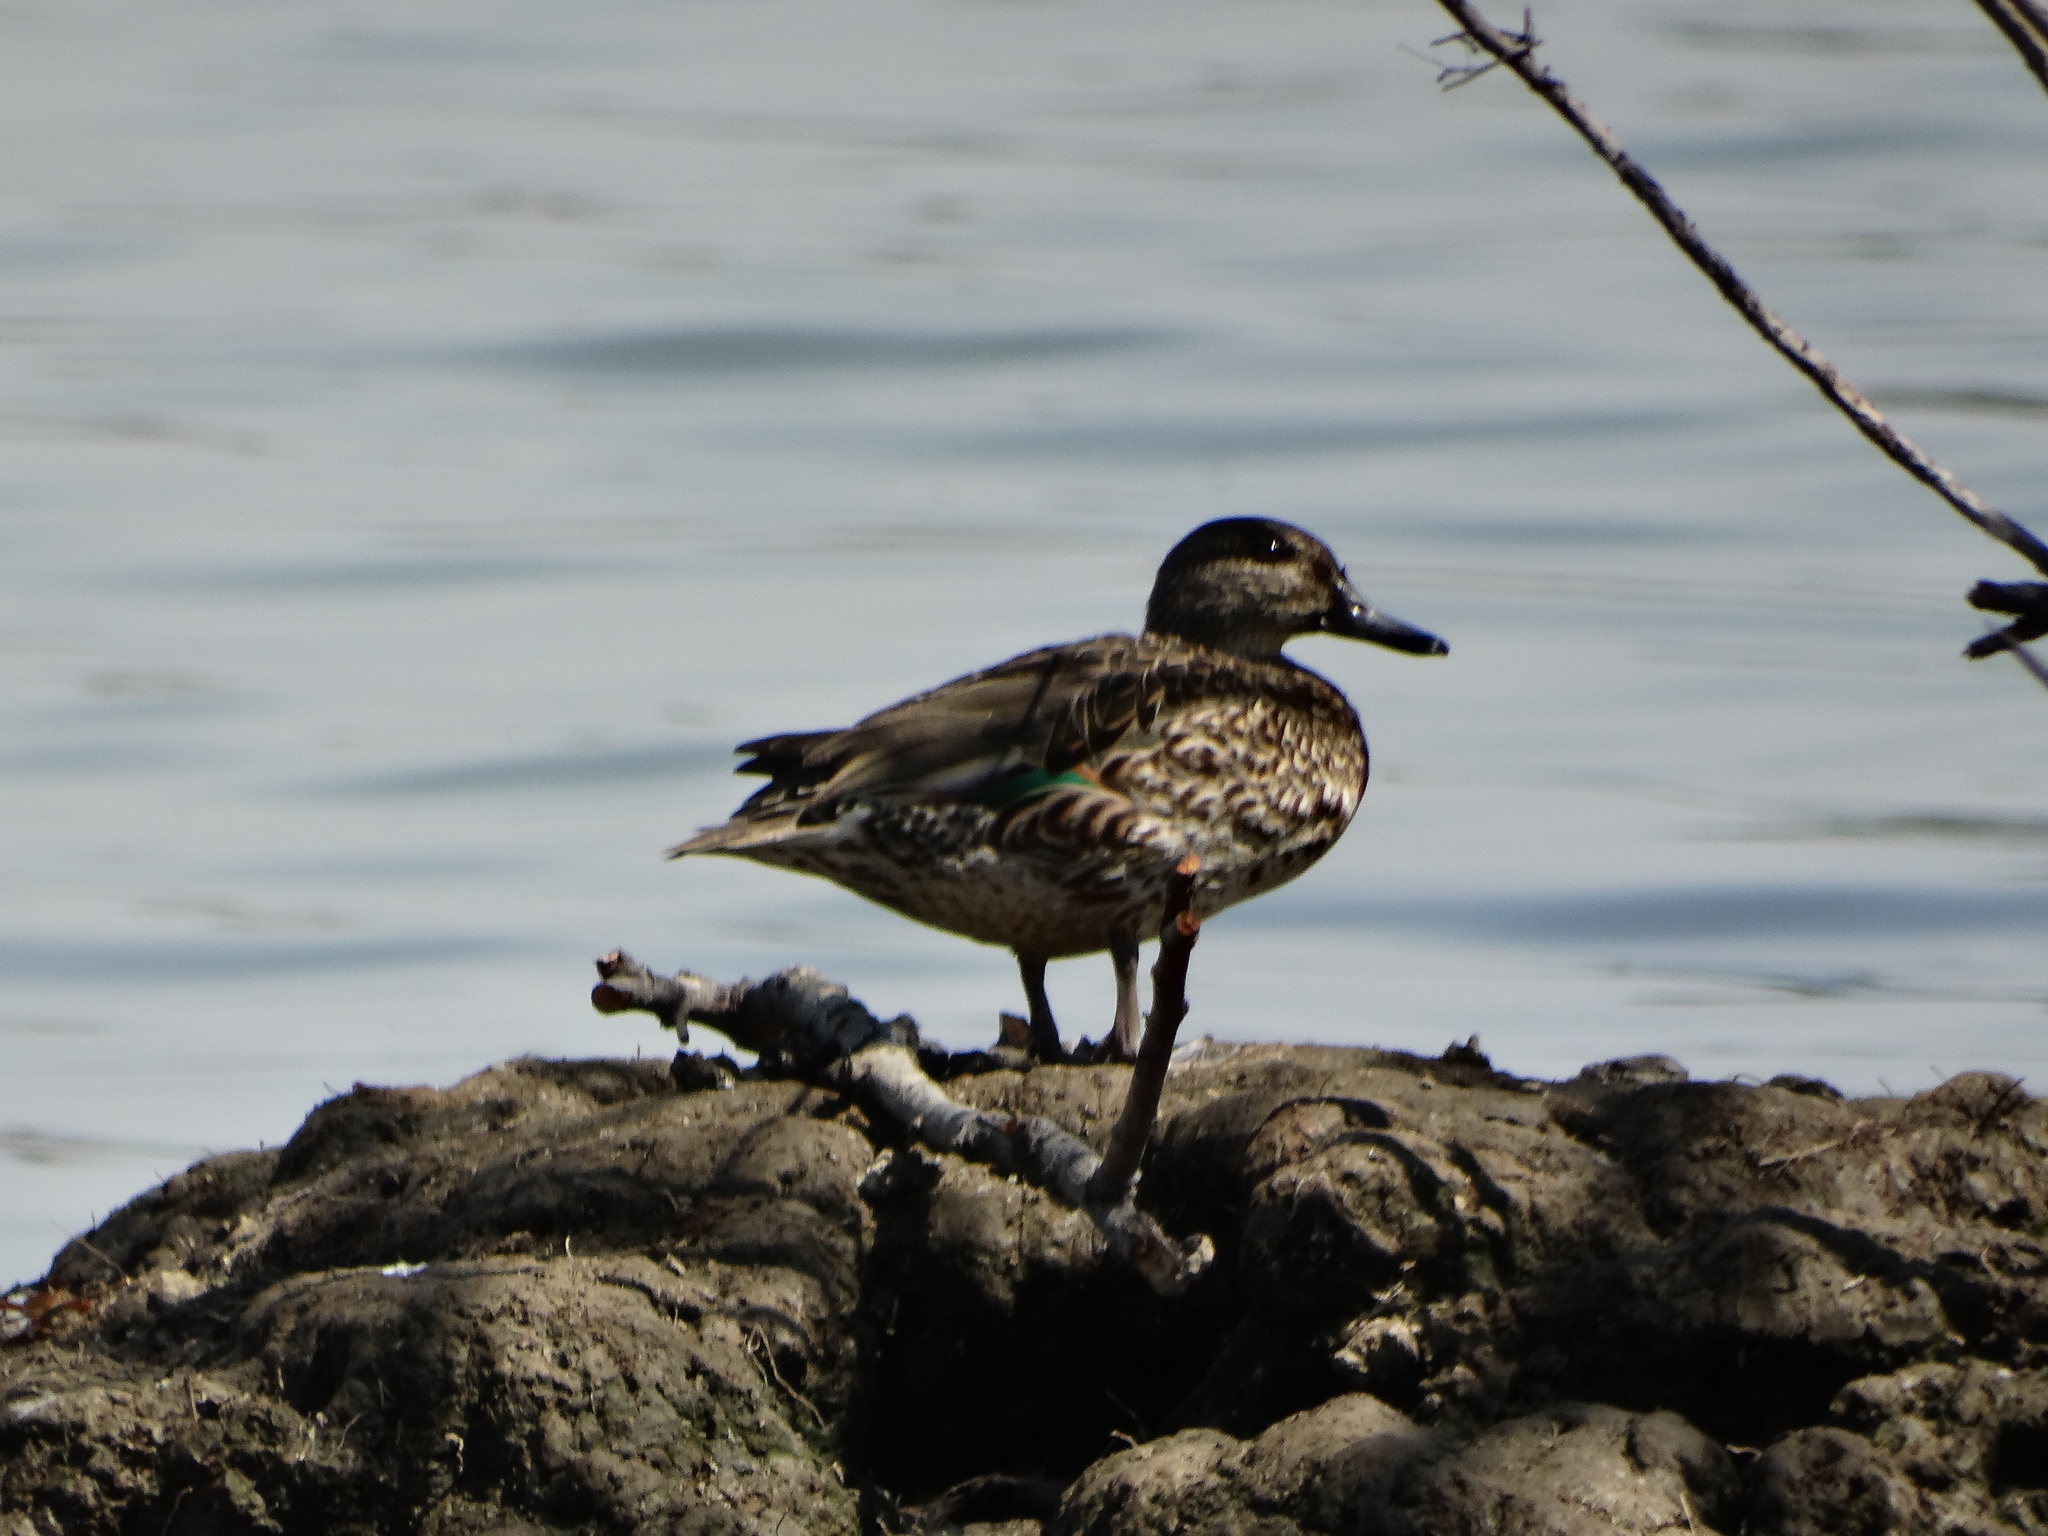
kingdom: Animalia
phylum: Chordata
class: Aves
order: Anseriformes
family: Anatidae
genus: Anas
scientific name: Anas crecca
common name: Eurasian teal
